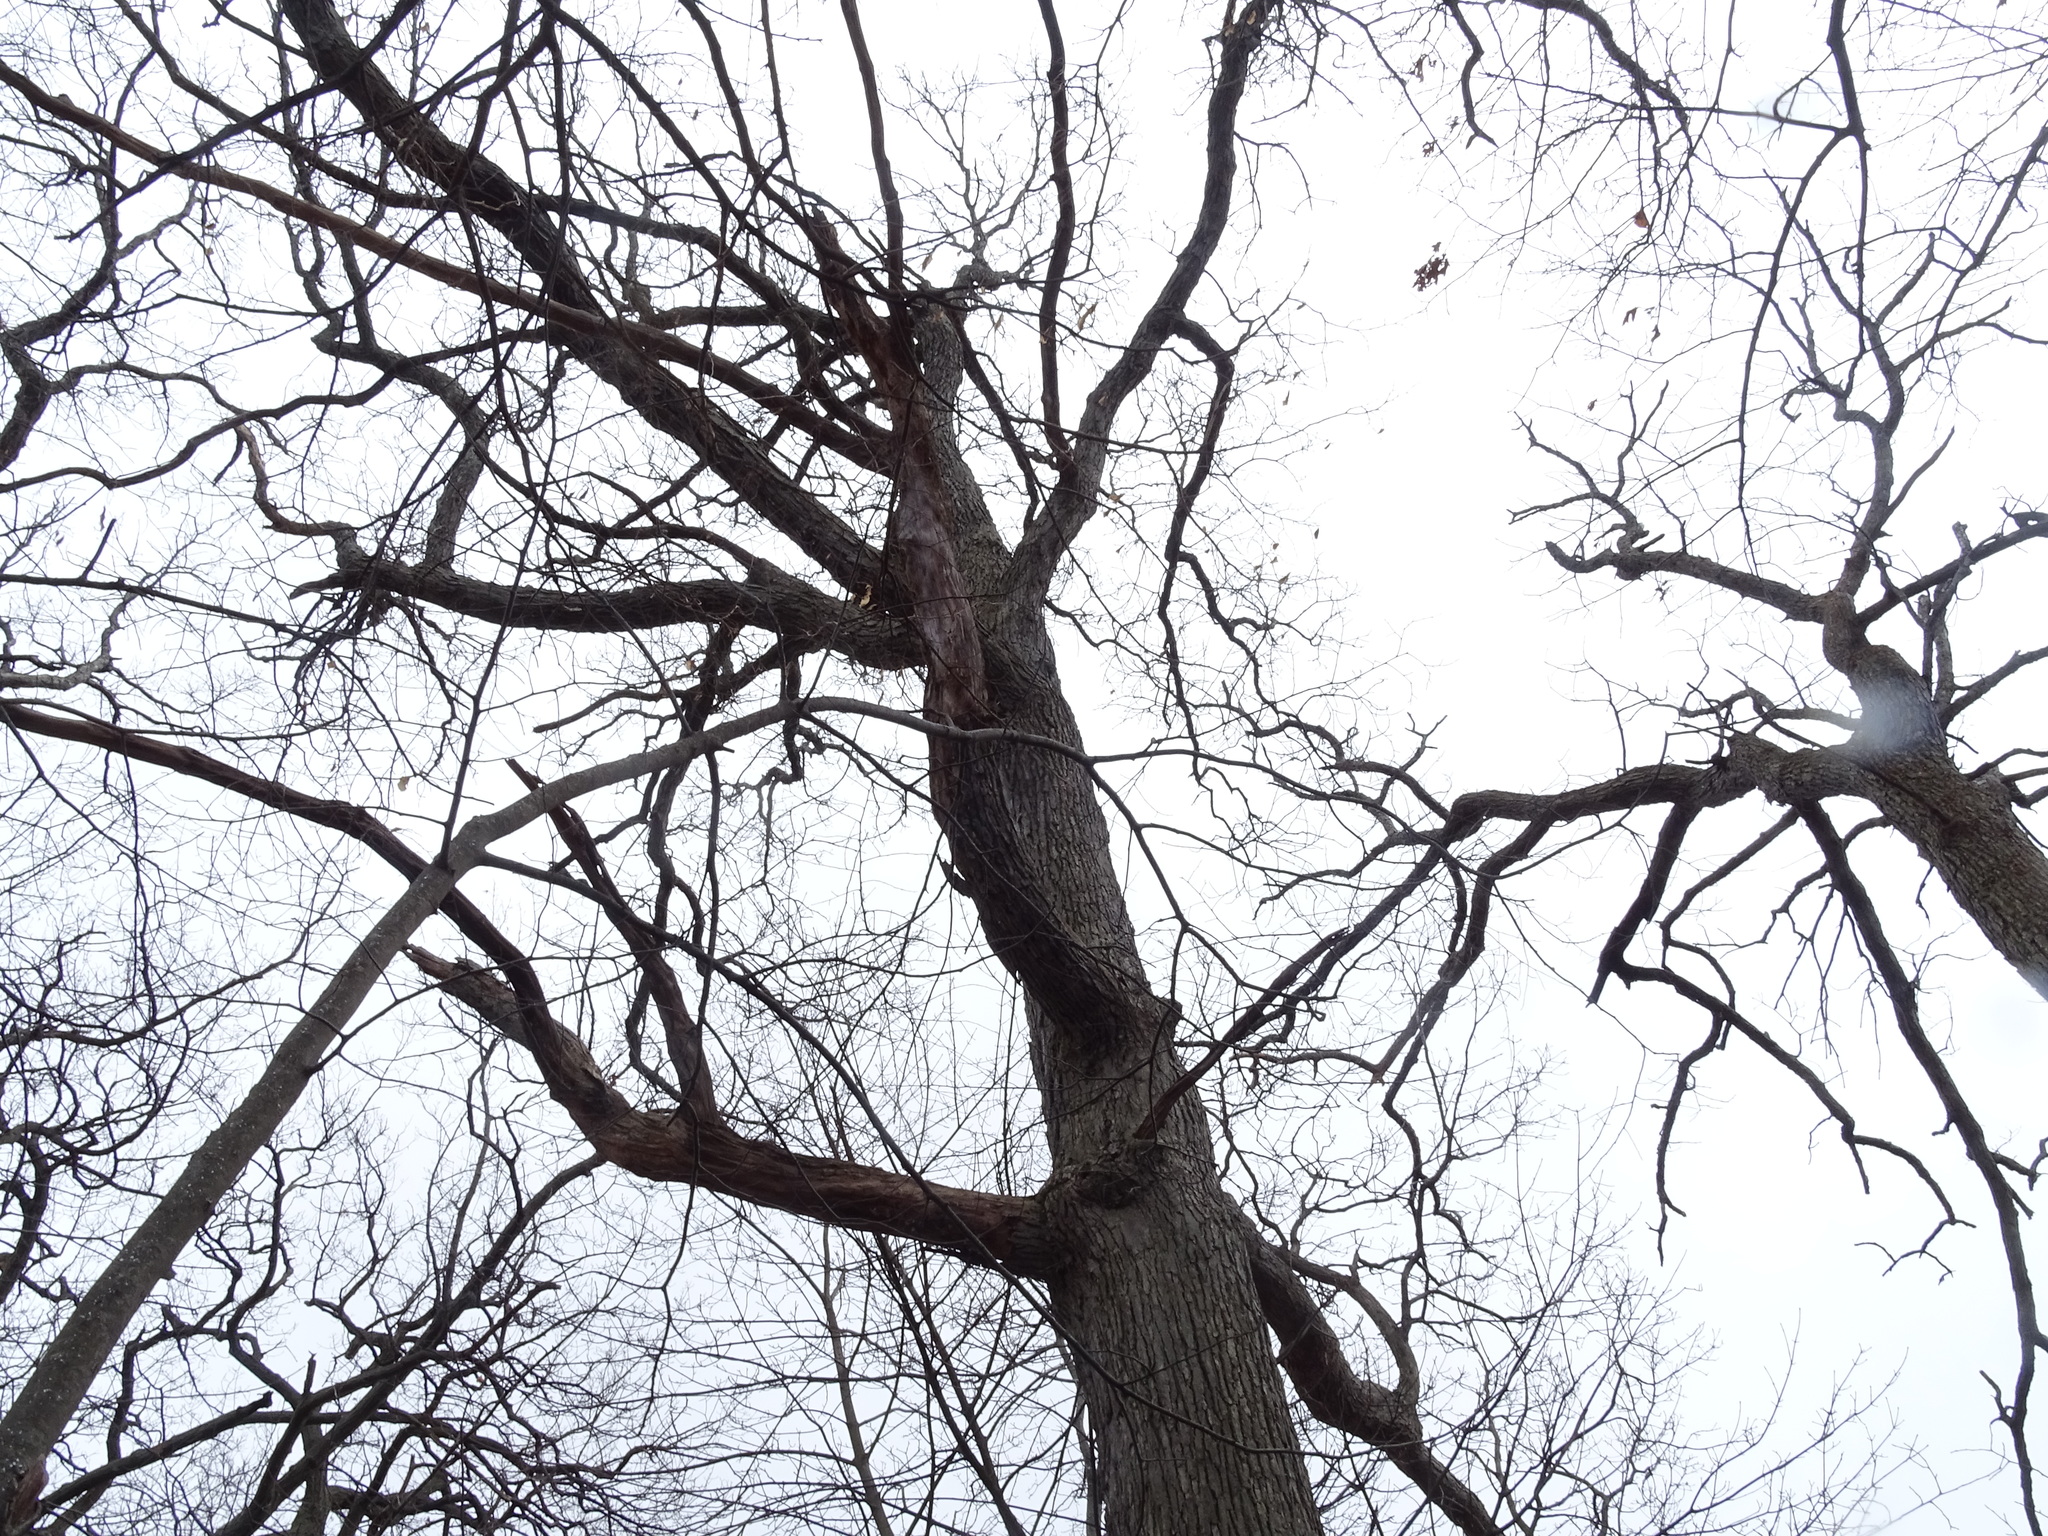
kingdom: Plantae
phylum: Tracheophyta
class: Magnoliopsida
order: Fagales
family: Fagaceae
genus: Quercus
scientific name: Quercus alba
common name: White oak
